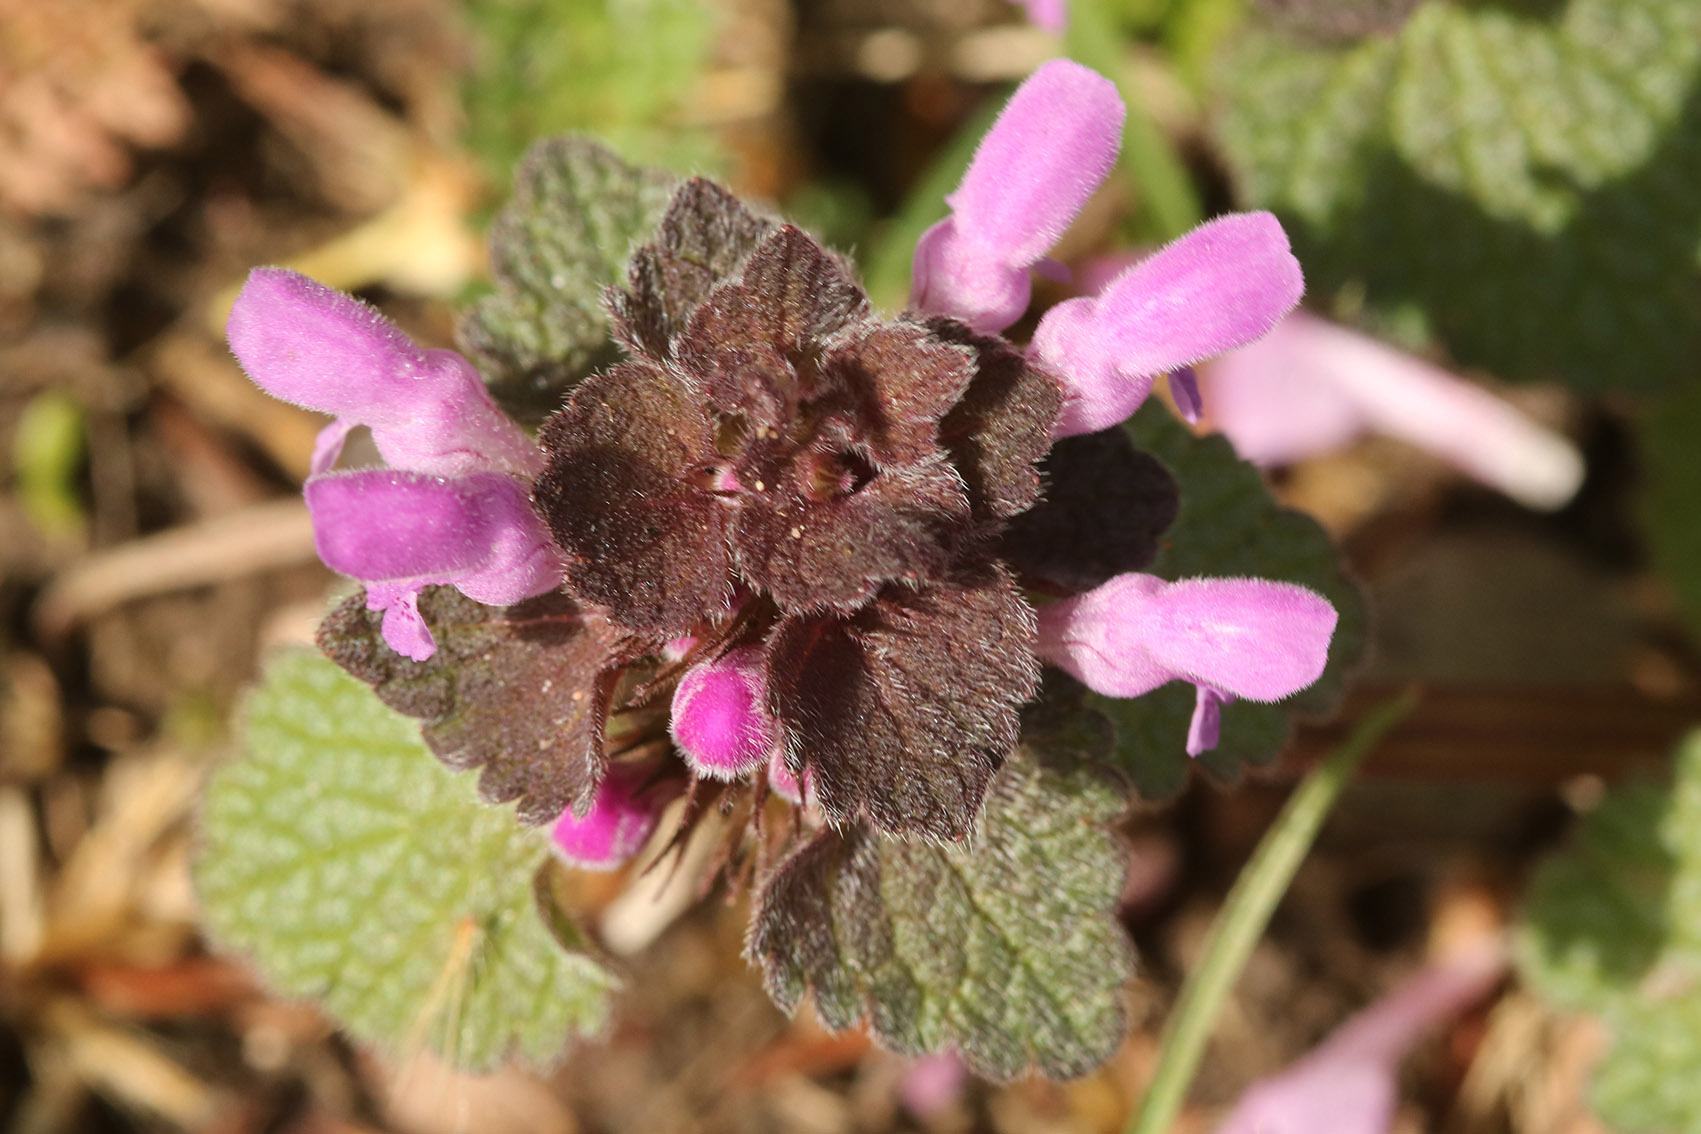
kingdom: Plantae
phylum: Tracheophyta
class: Magnoliopsida
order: Lamiales
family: Lamiaceae
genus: Lamium
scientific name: Lamium purpureum
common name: Red dead-nettle
